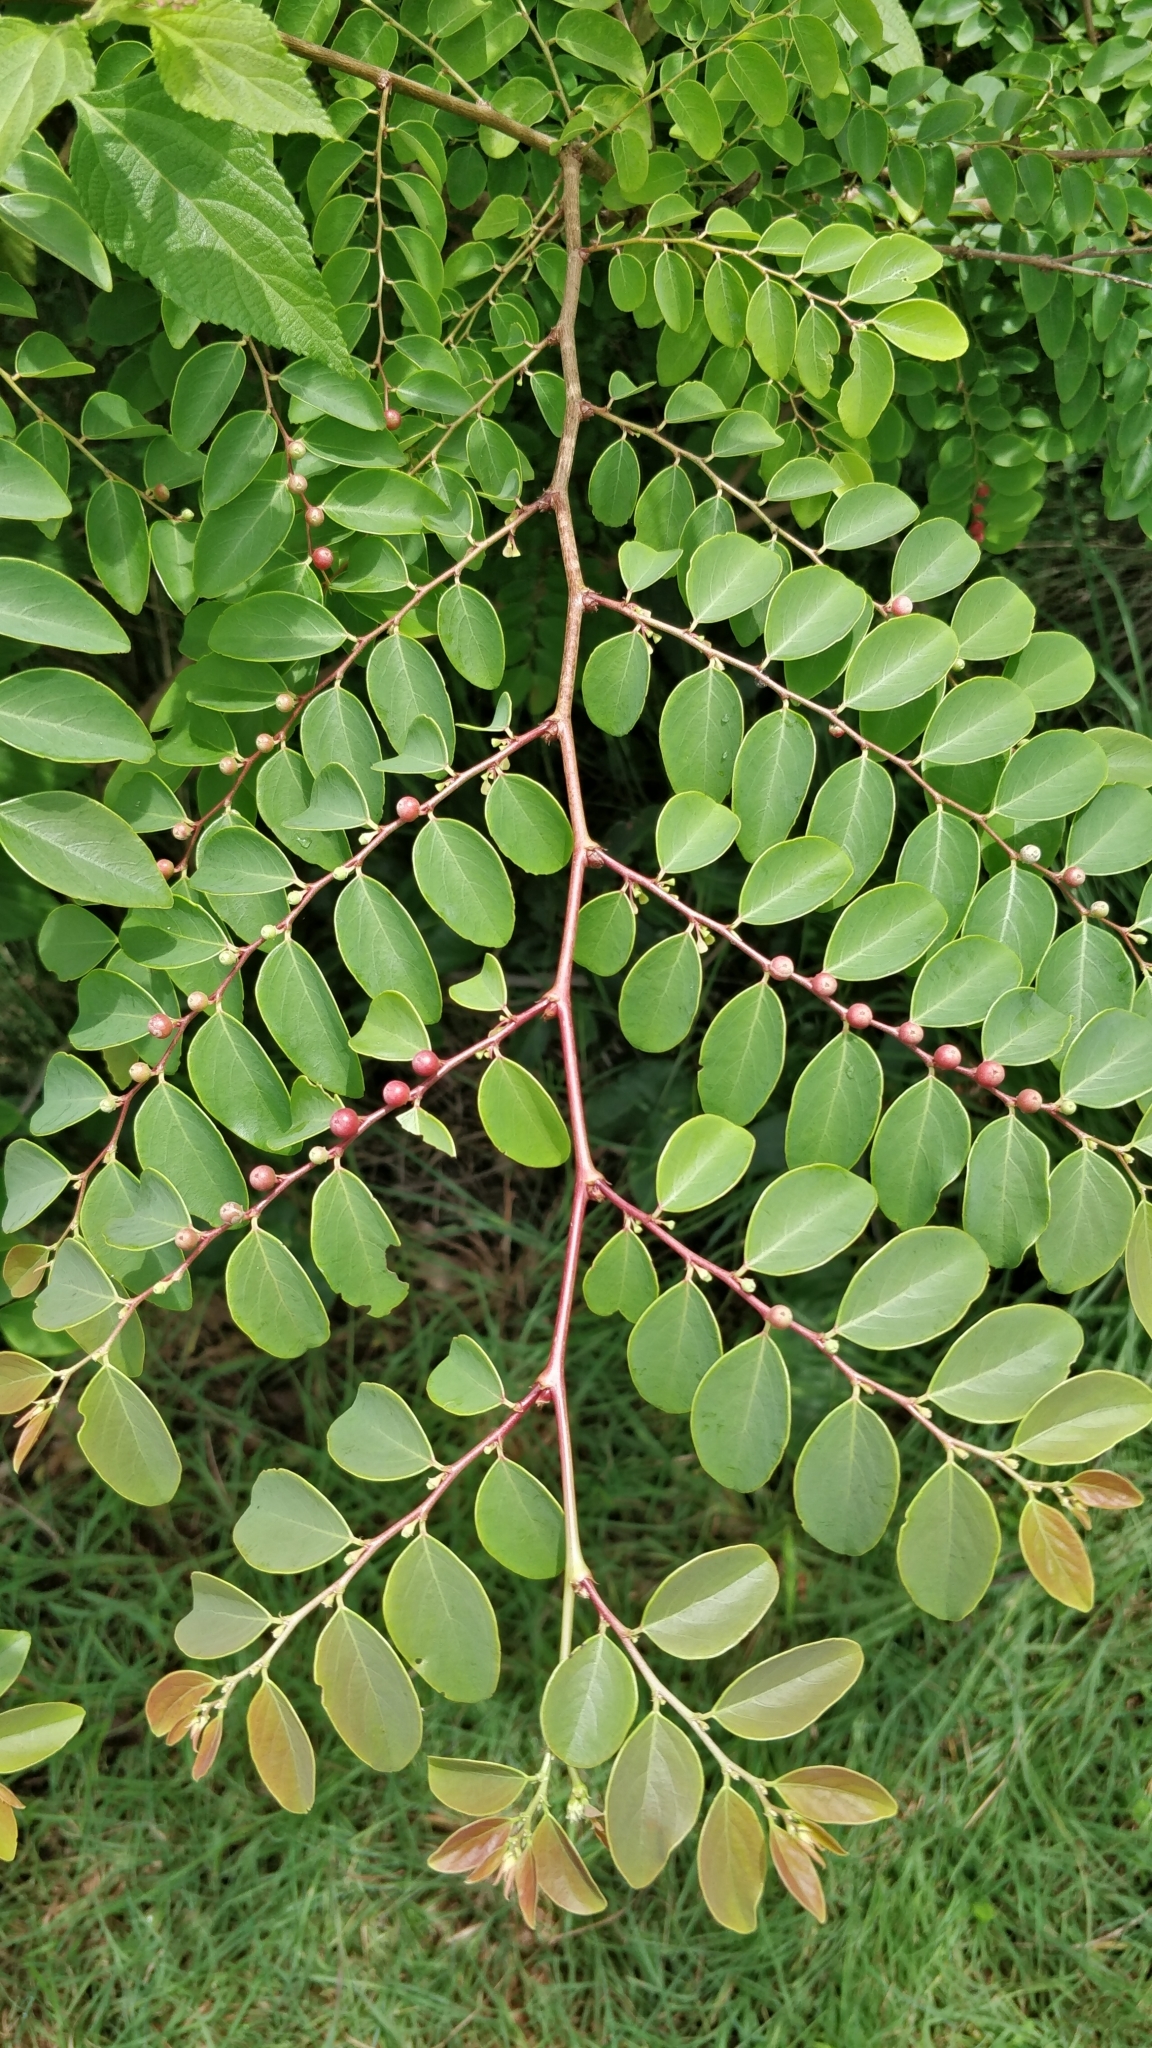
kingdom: Plantae
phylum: Tracheophyta
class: Magnoliopsida
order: Malpighiales
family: Phyllanthaceae
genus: Breynia
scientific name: Breynia vitis-idaea
